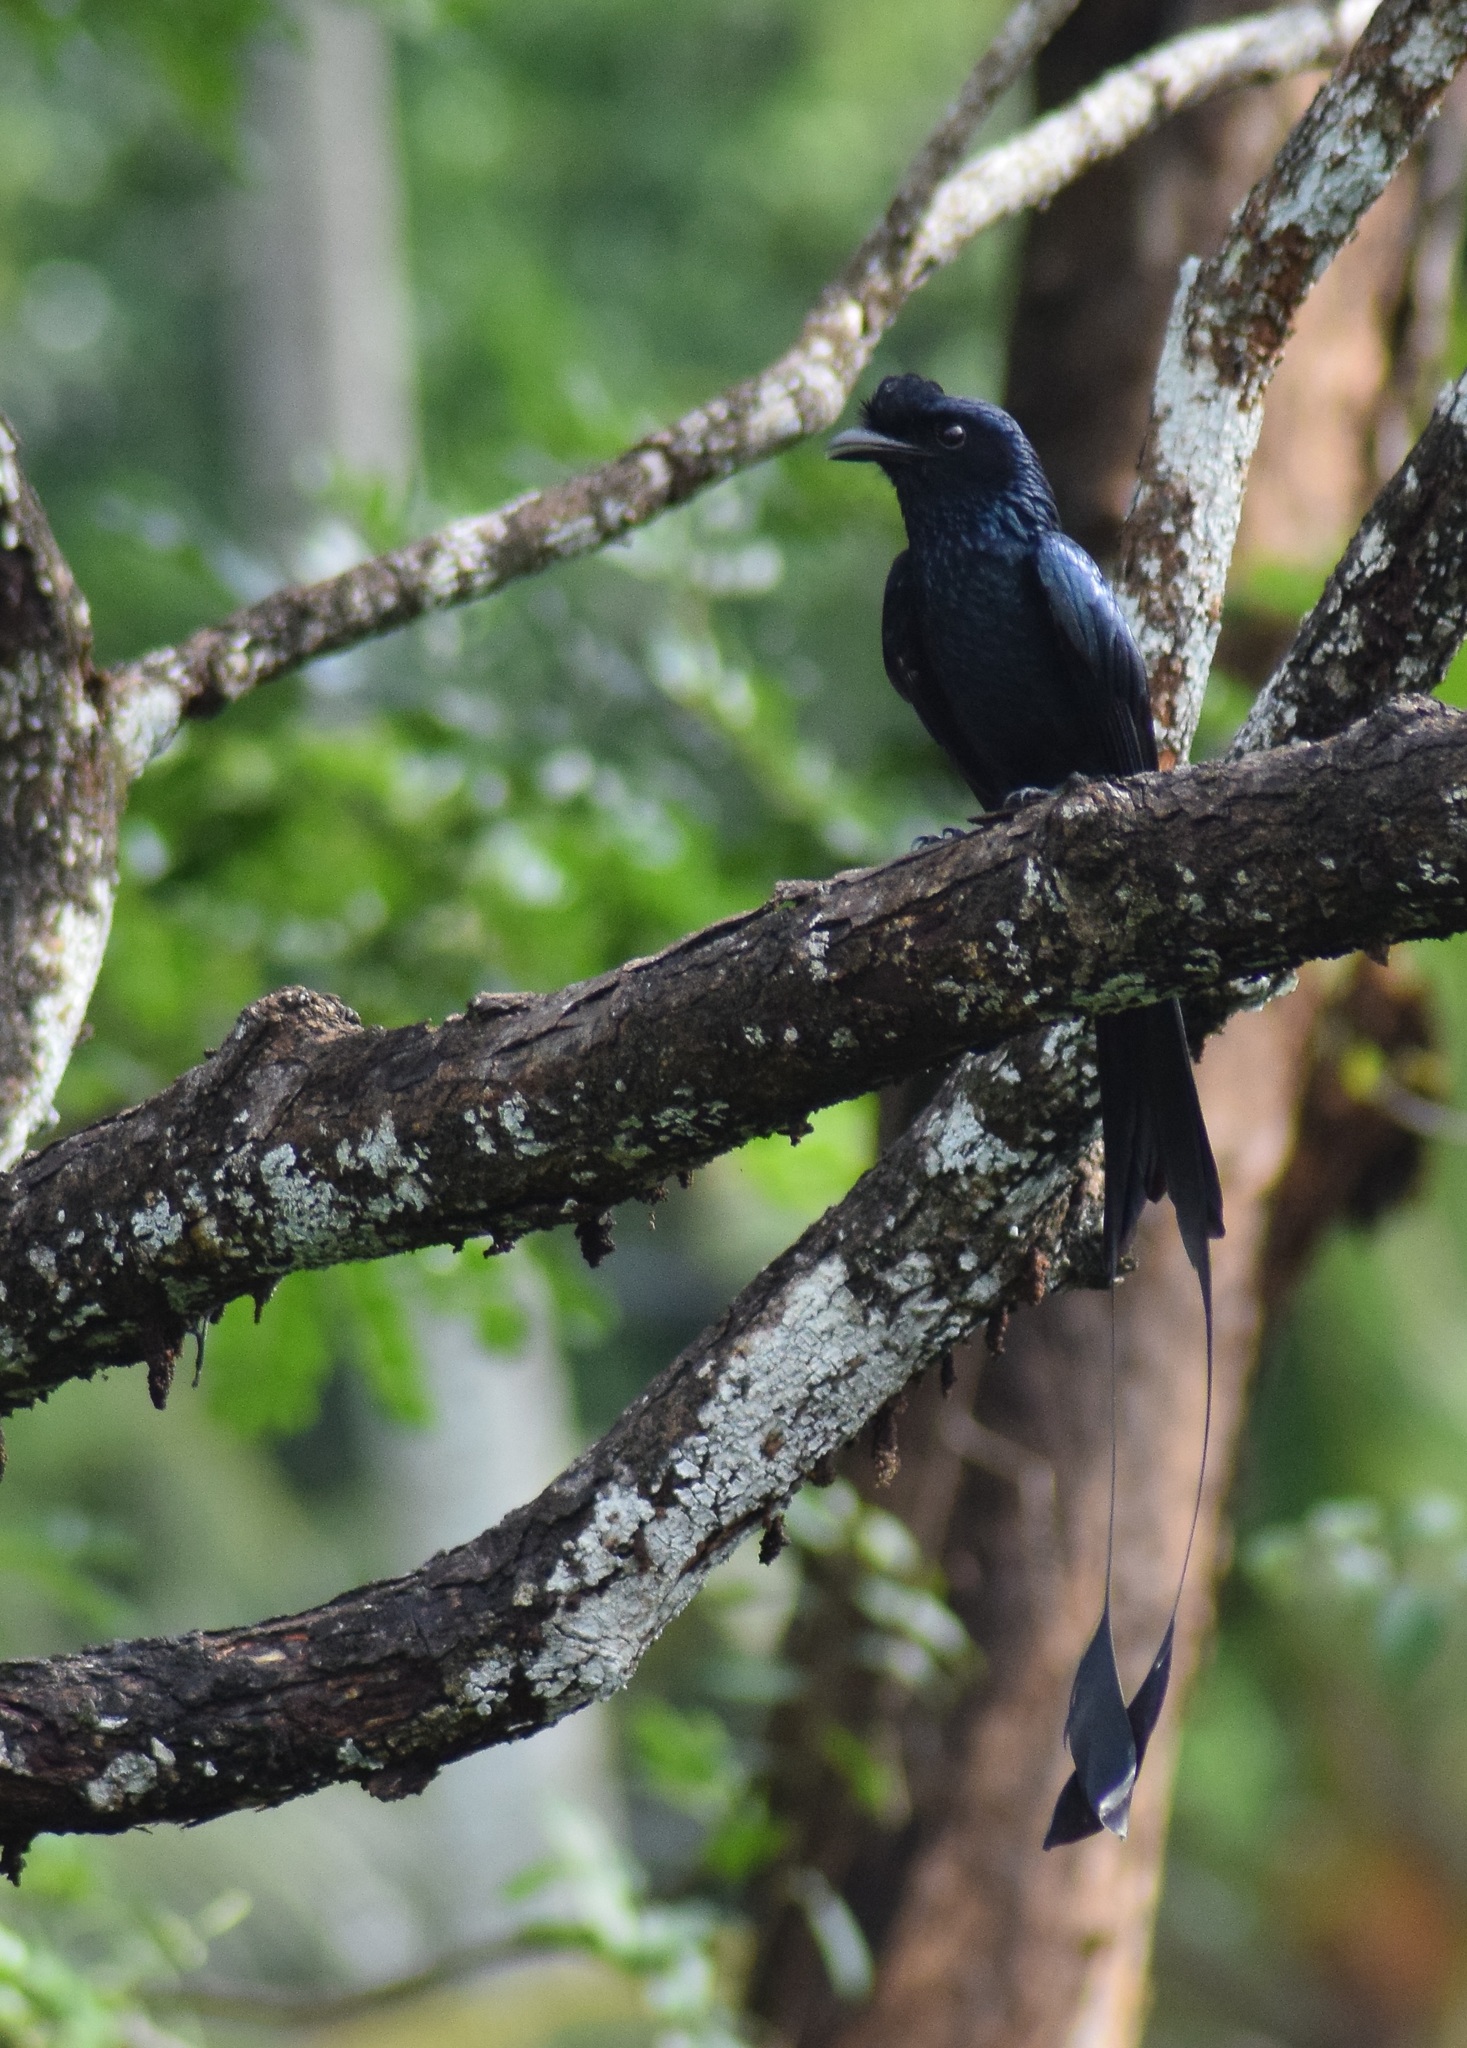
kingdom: Animalia
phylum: Chordata
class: Aves
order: Passeriformes
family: Dicruridae
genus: Dicrurus
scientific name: Dicrurus paradiseus
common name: Greater racket-tailed drongo
